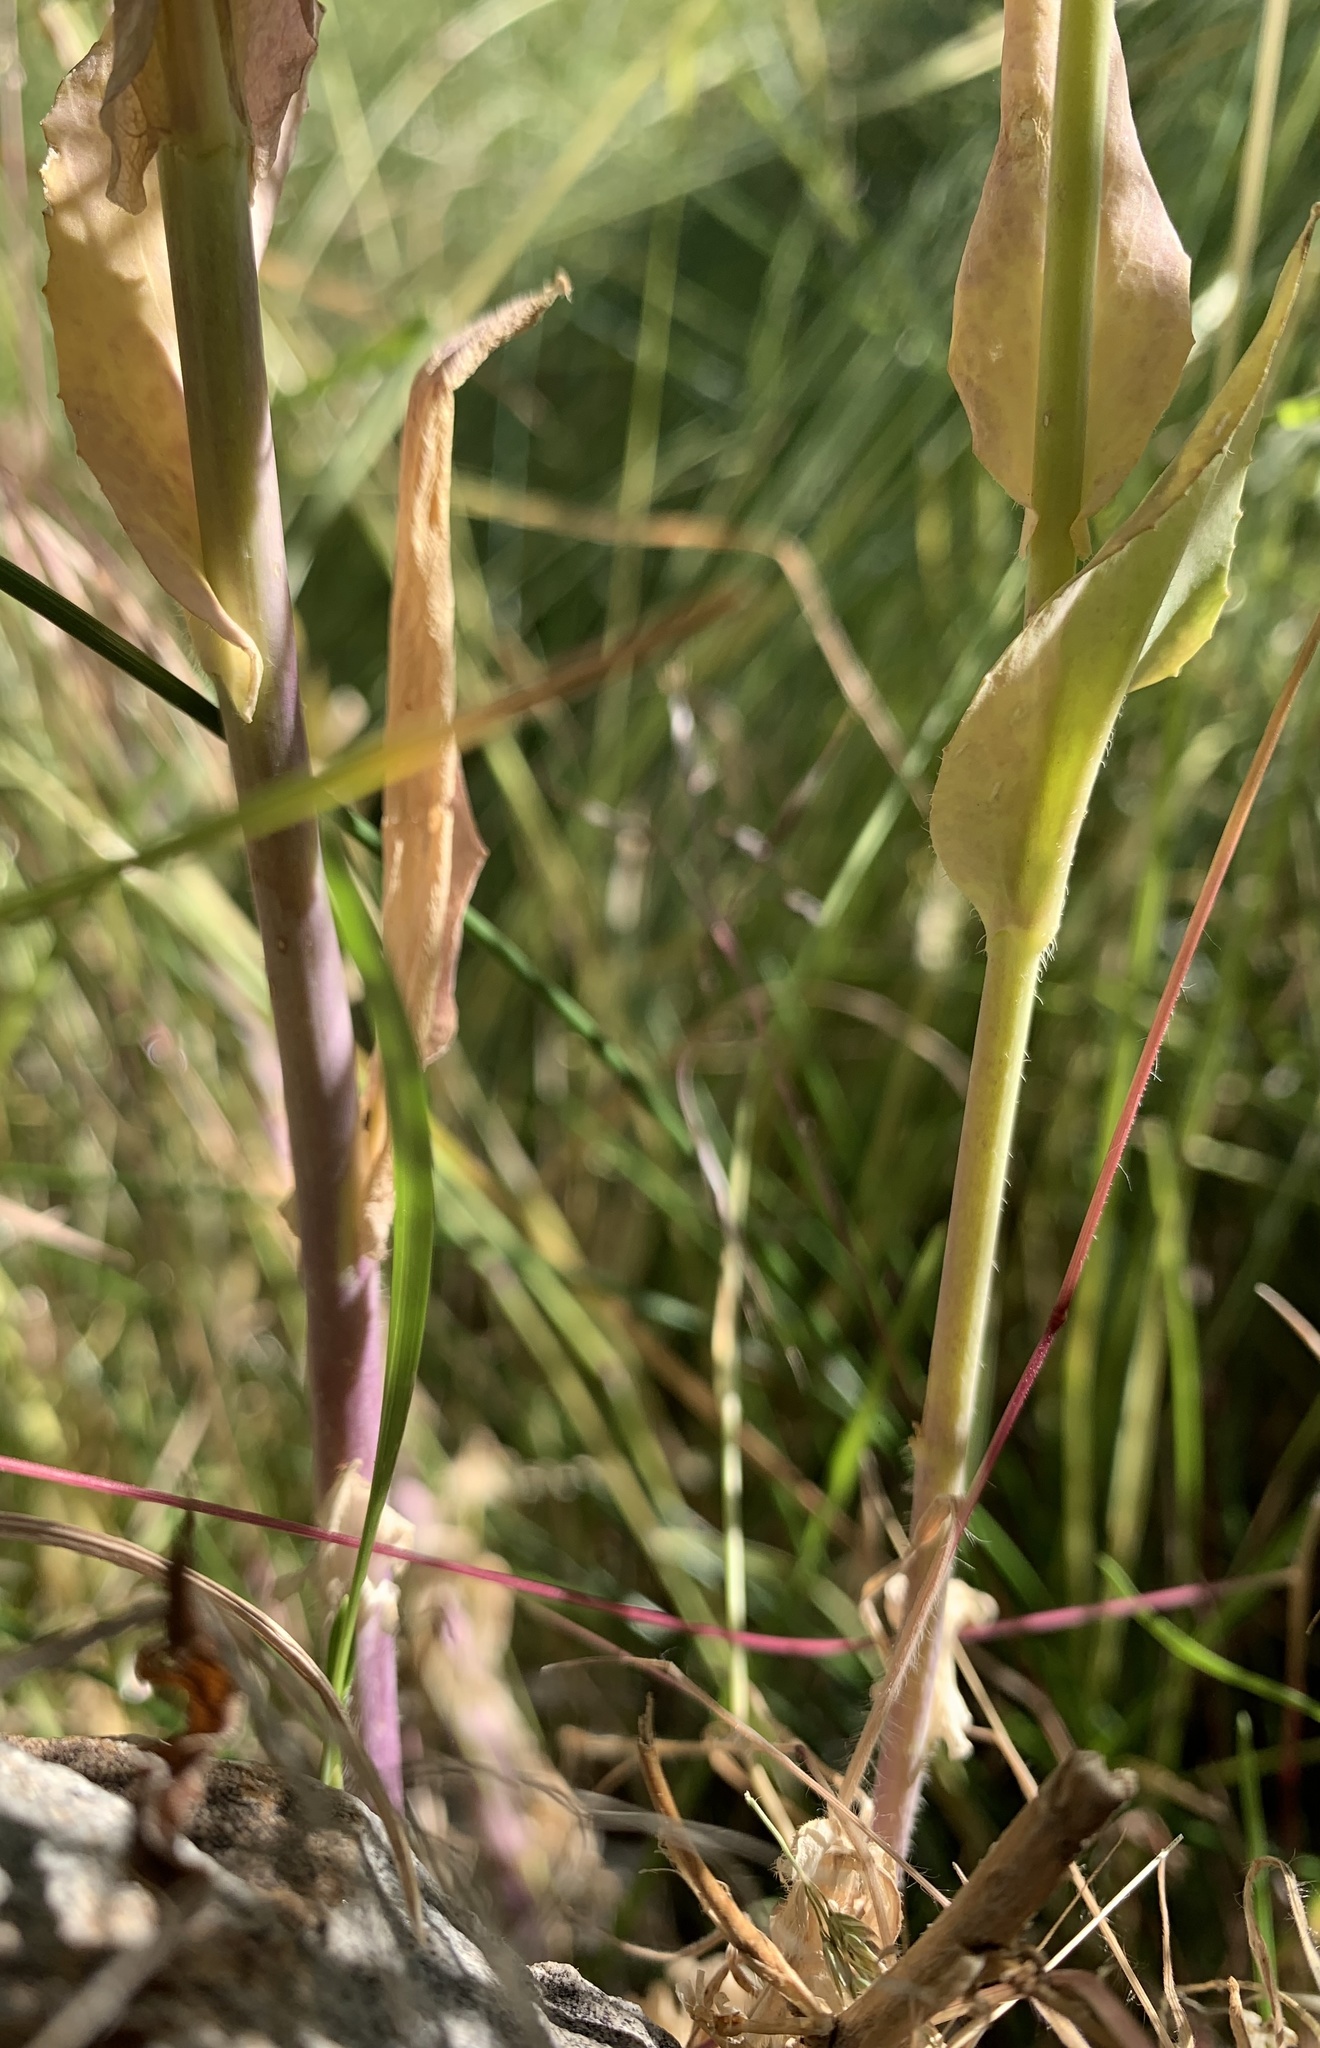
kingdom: Plantae
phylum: Tracheophyta
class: Magnoliopsida
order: Brassicales
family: Brassicaceae
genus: Turritis
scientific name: Turritis glabra
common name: Tower rockcress
